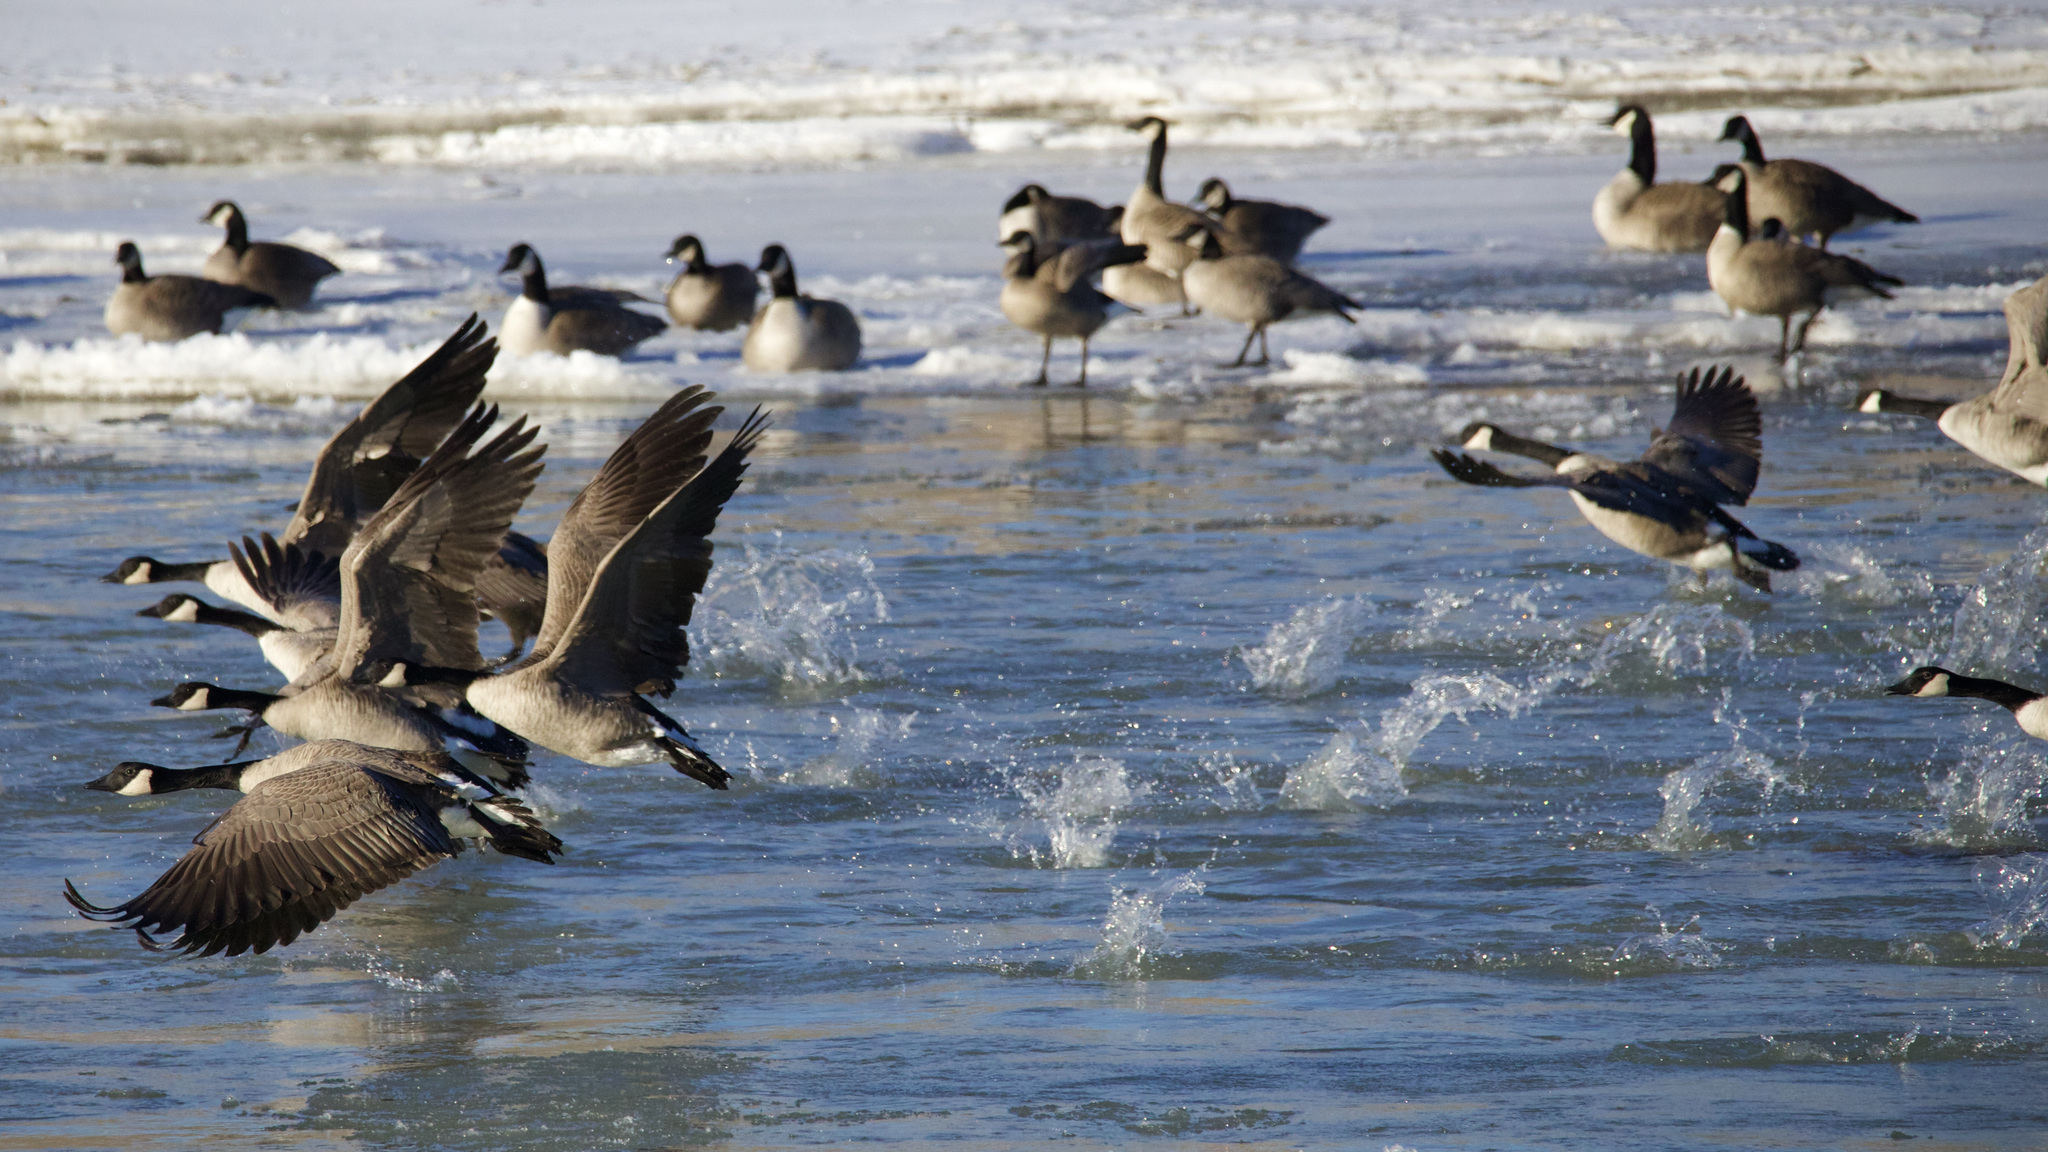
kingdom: Animalia
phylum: Chordata
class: Aves
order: Anseriformes
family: Anatidae
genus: Branta
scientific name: Branta canadensis
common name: Canada goose
